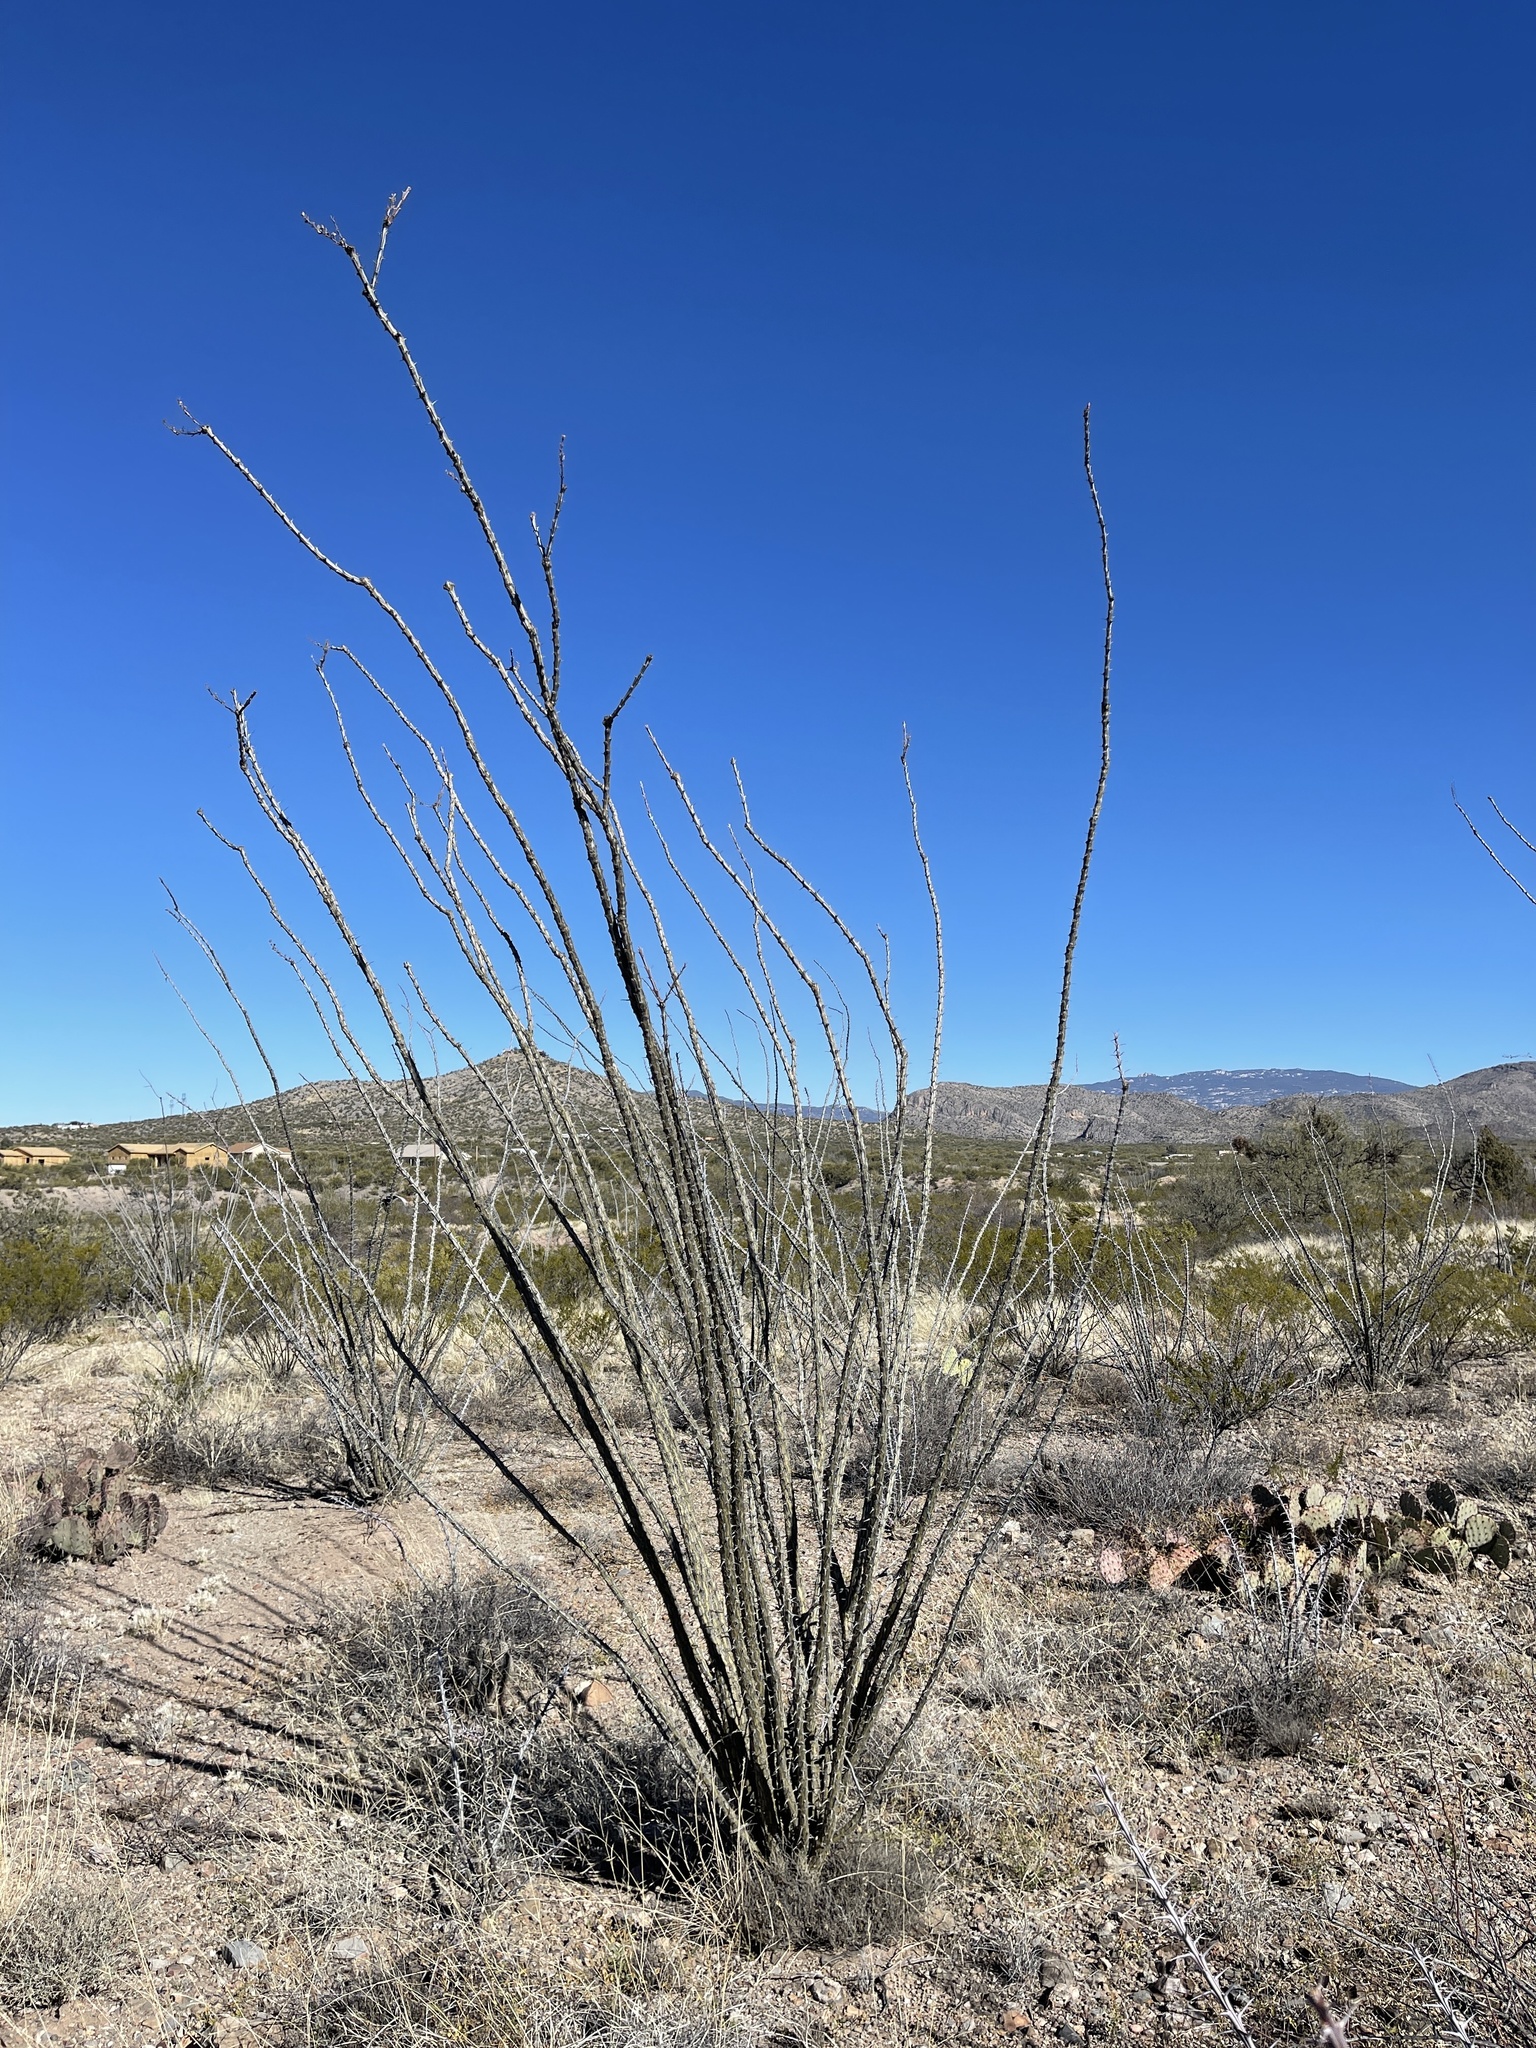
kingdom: Plantae
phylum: Tracheophyta
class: Magnoliopsida
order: Ericales
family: Fouquieriaceae
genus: Fouquieria
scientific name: Fouquieria splendens
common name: Vine-cactus
